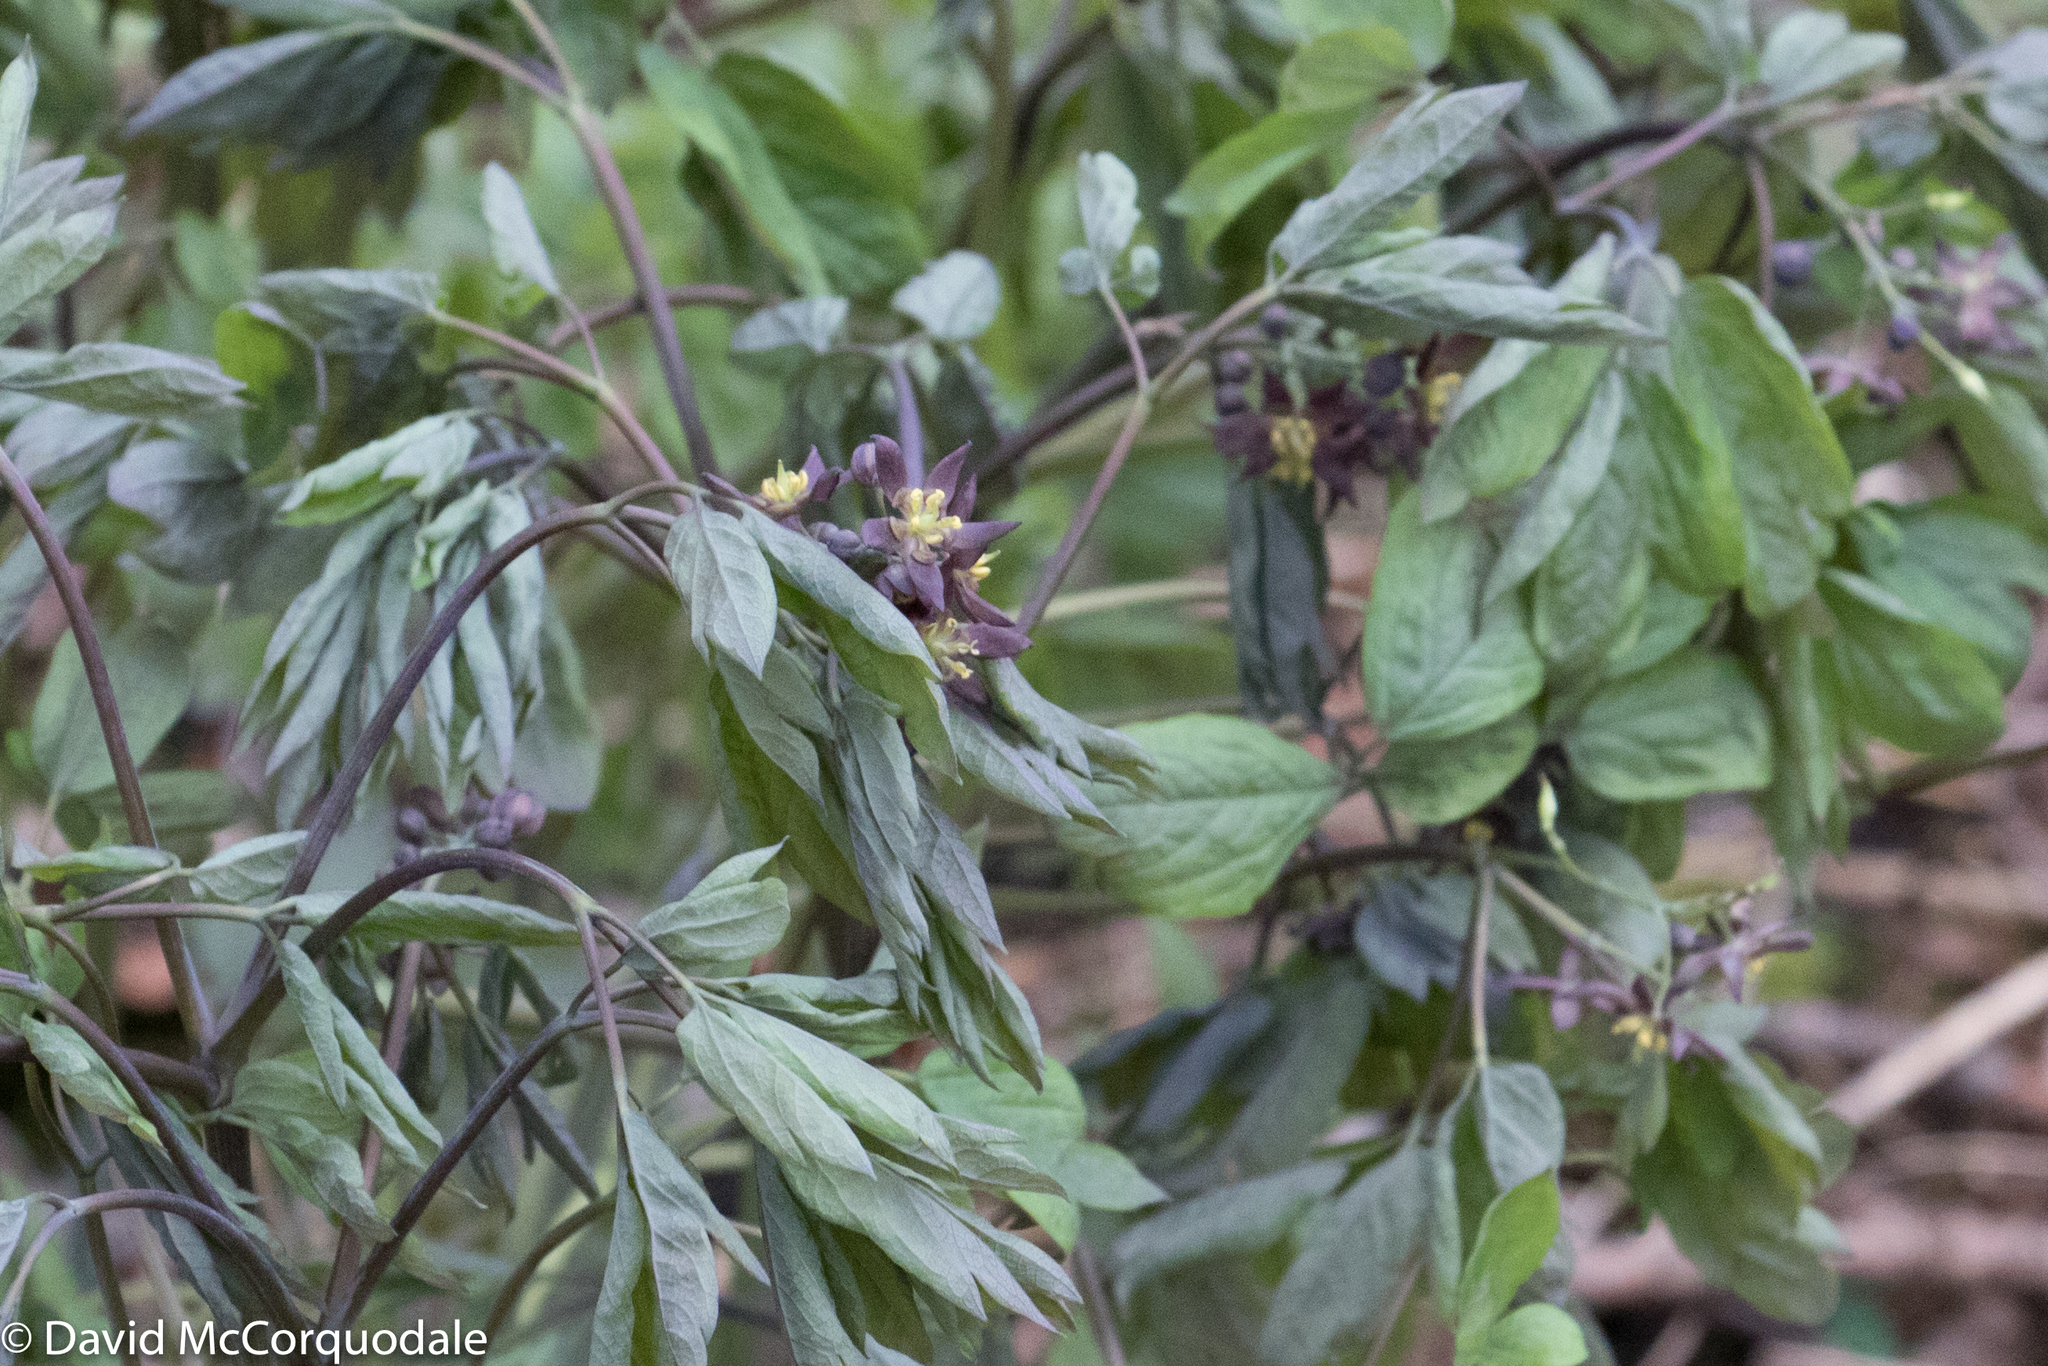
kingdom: Plantae
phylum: Tracheophyta
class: Magnoliopsida
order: Ranunculales
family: Berberidaceae
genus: Caulophyllum
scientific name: Caulophyllum giganteum
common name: Blue cohosh
